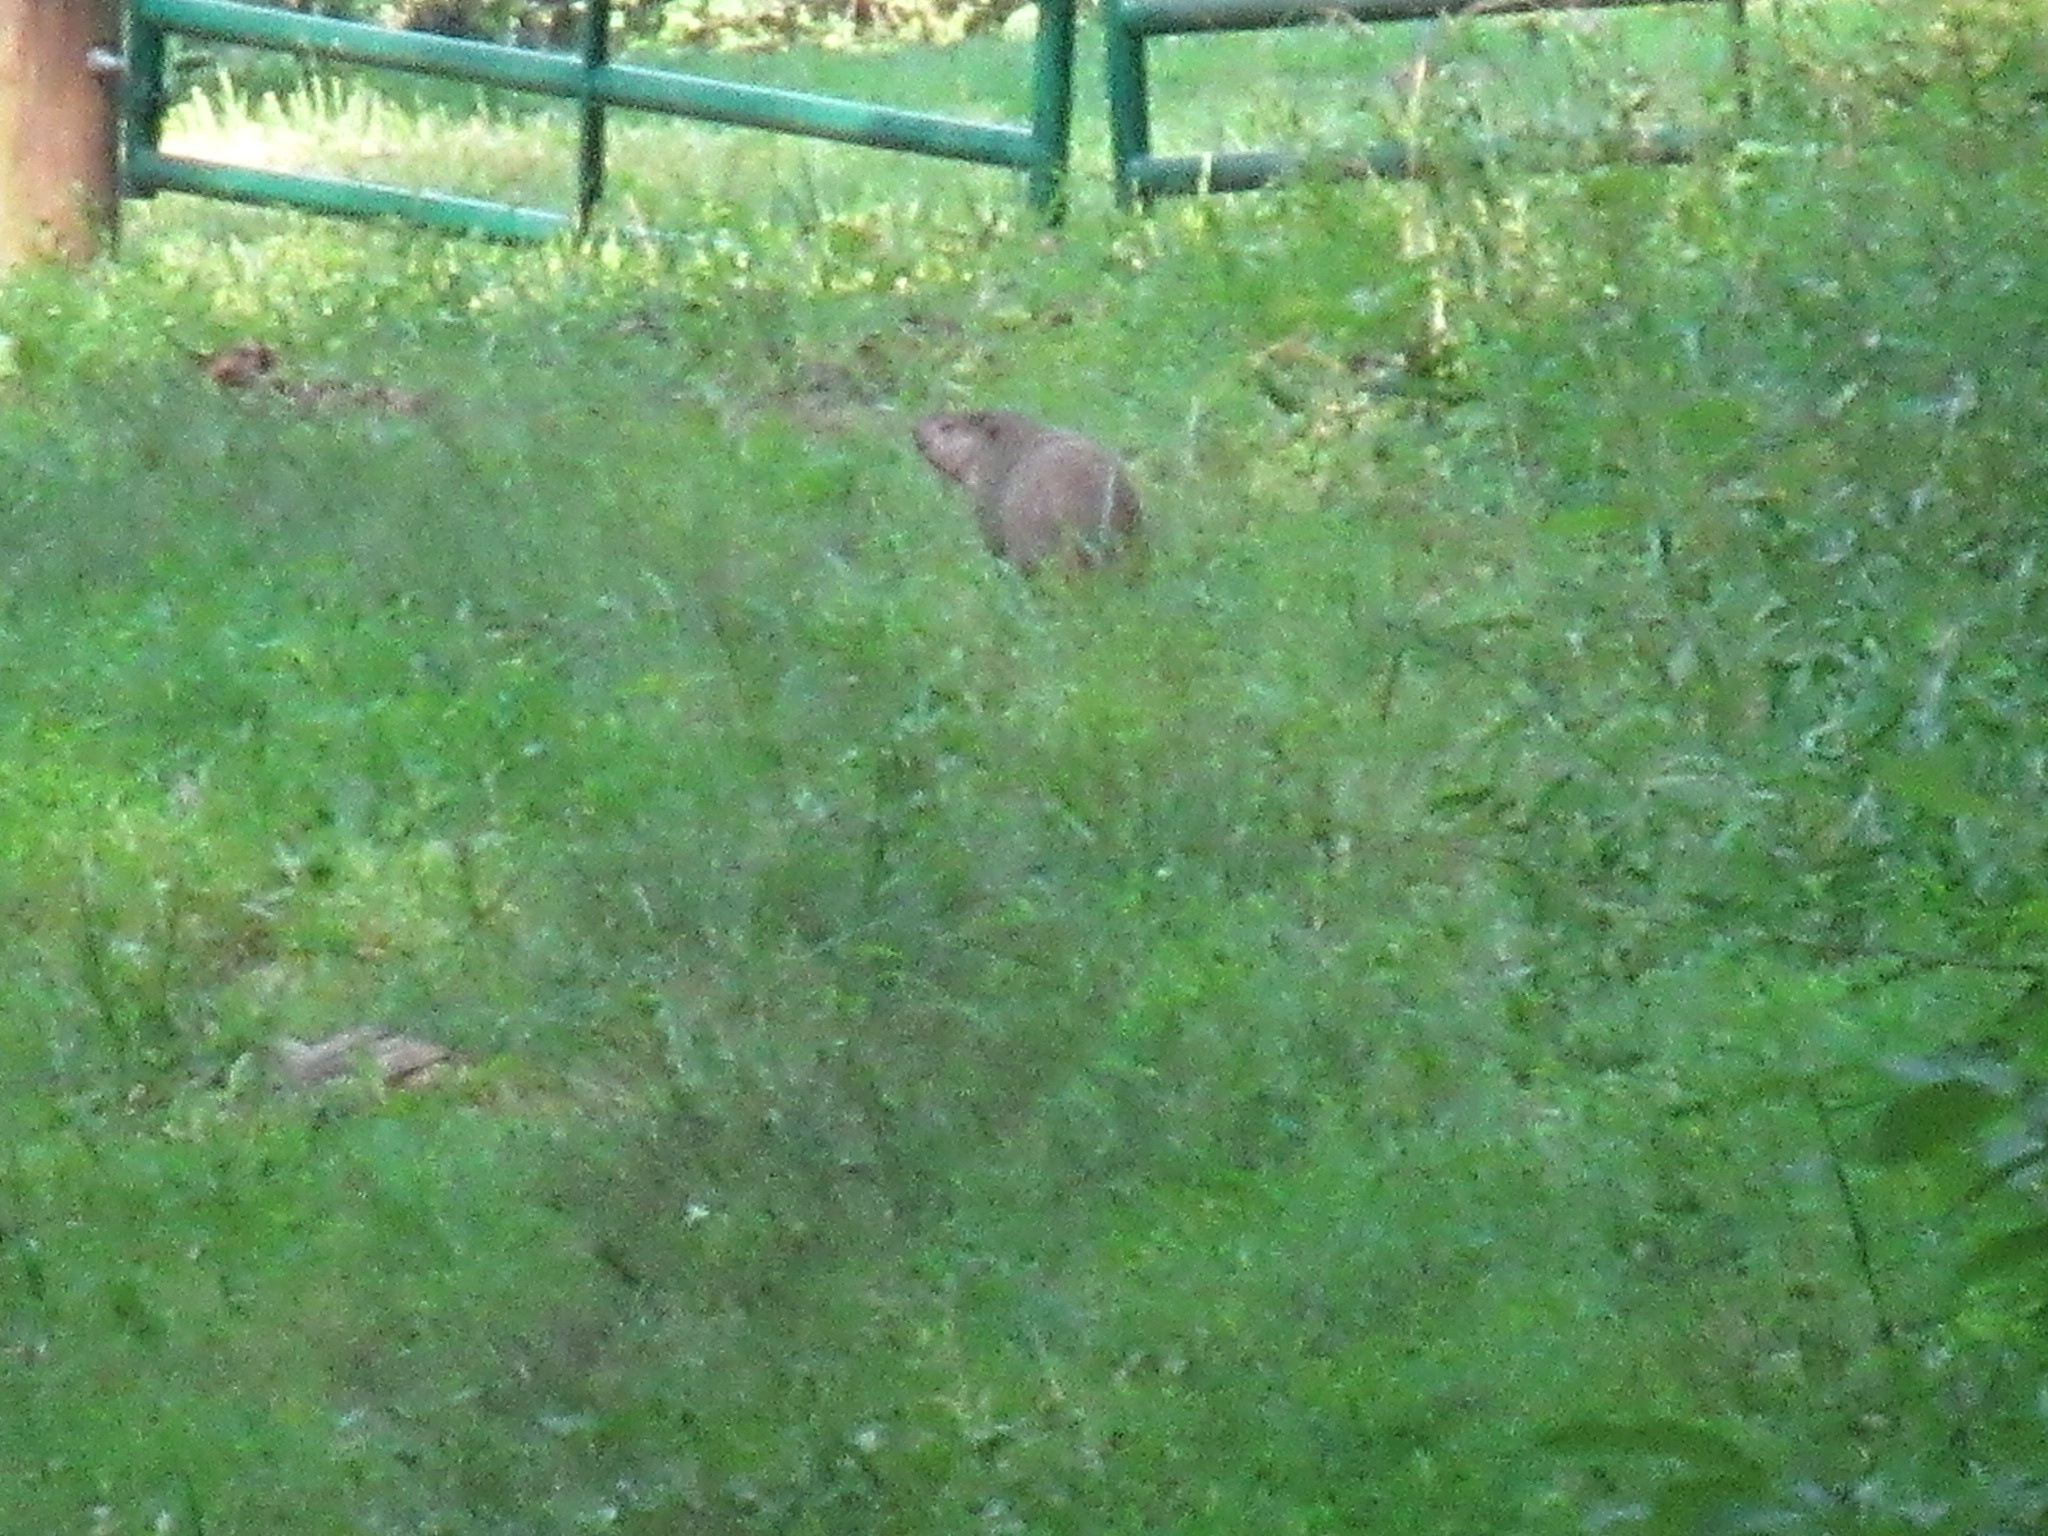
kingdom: Animalia
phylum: Chordata
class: Mammalia
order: Rodentia
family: Sciuridae
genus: Marmota
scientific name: Marmota monax
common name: Groundhog
